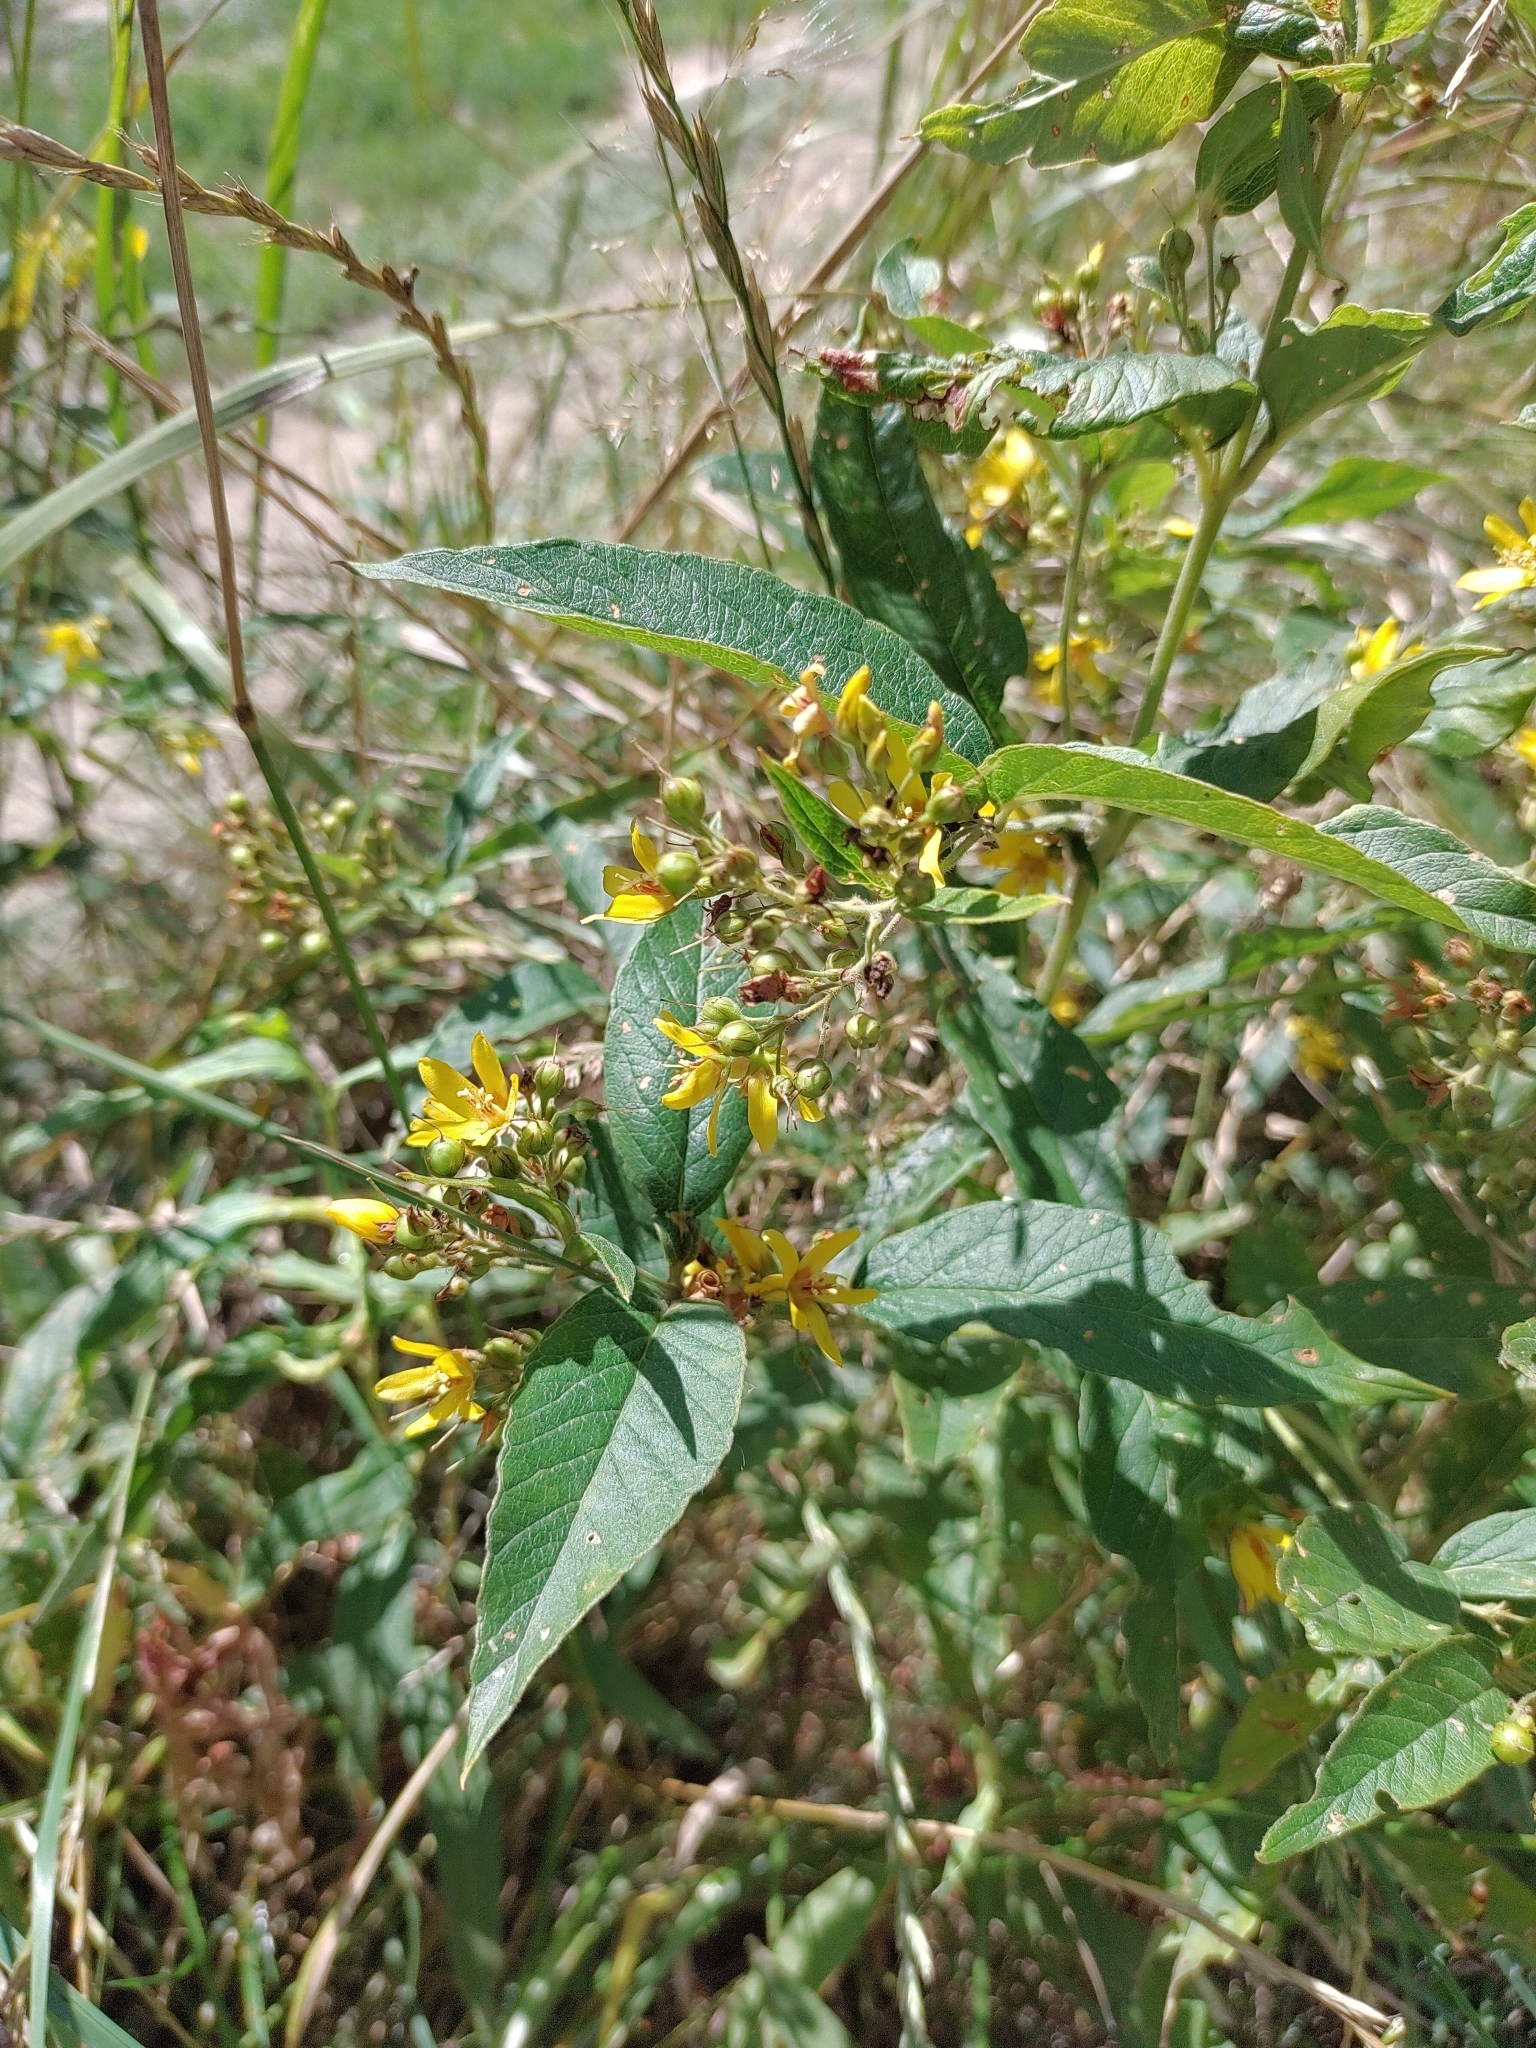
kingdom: Plantae
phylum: Tracheophyta
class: Magnoliopsida
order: Ericales
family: Primulaceae
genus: Lysimachia
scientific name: Lysimachia vulgaris
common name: Yellow loosestrife
